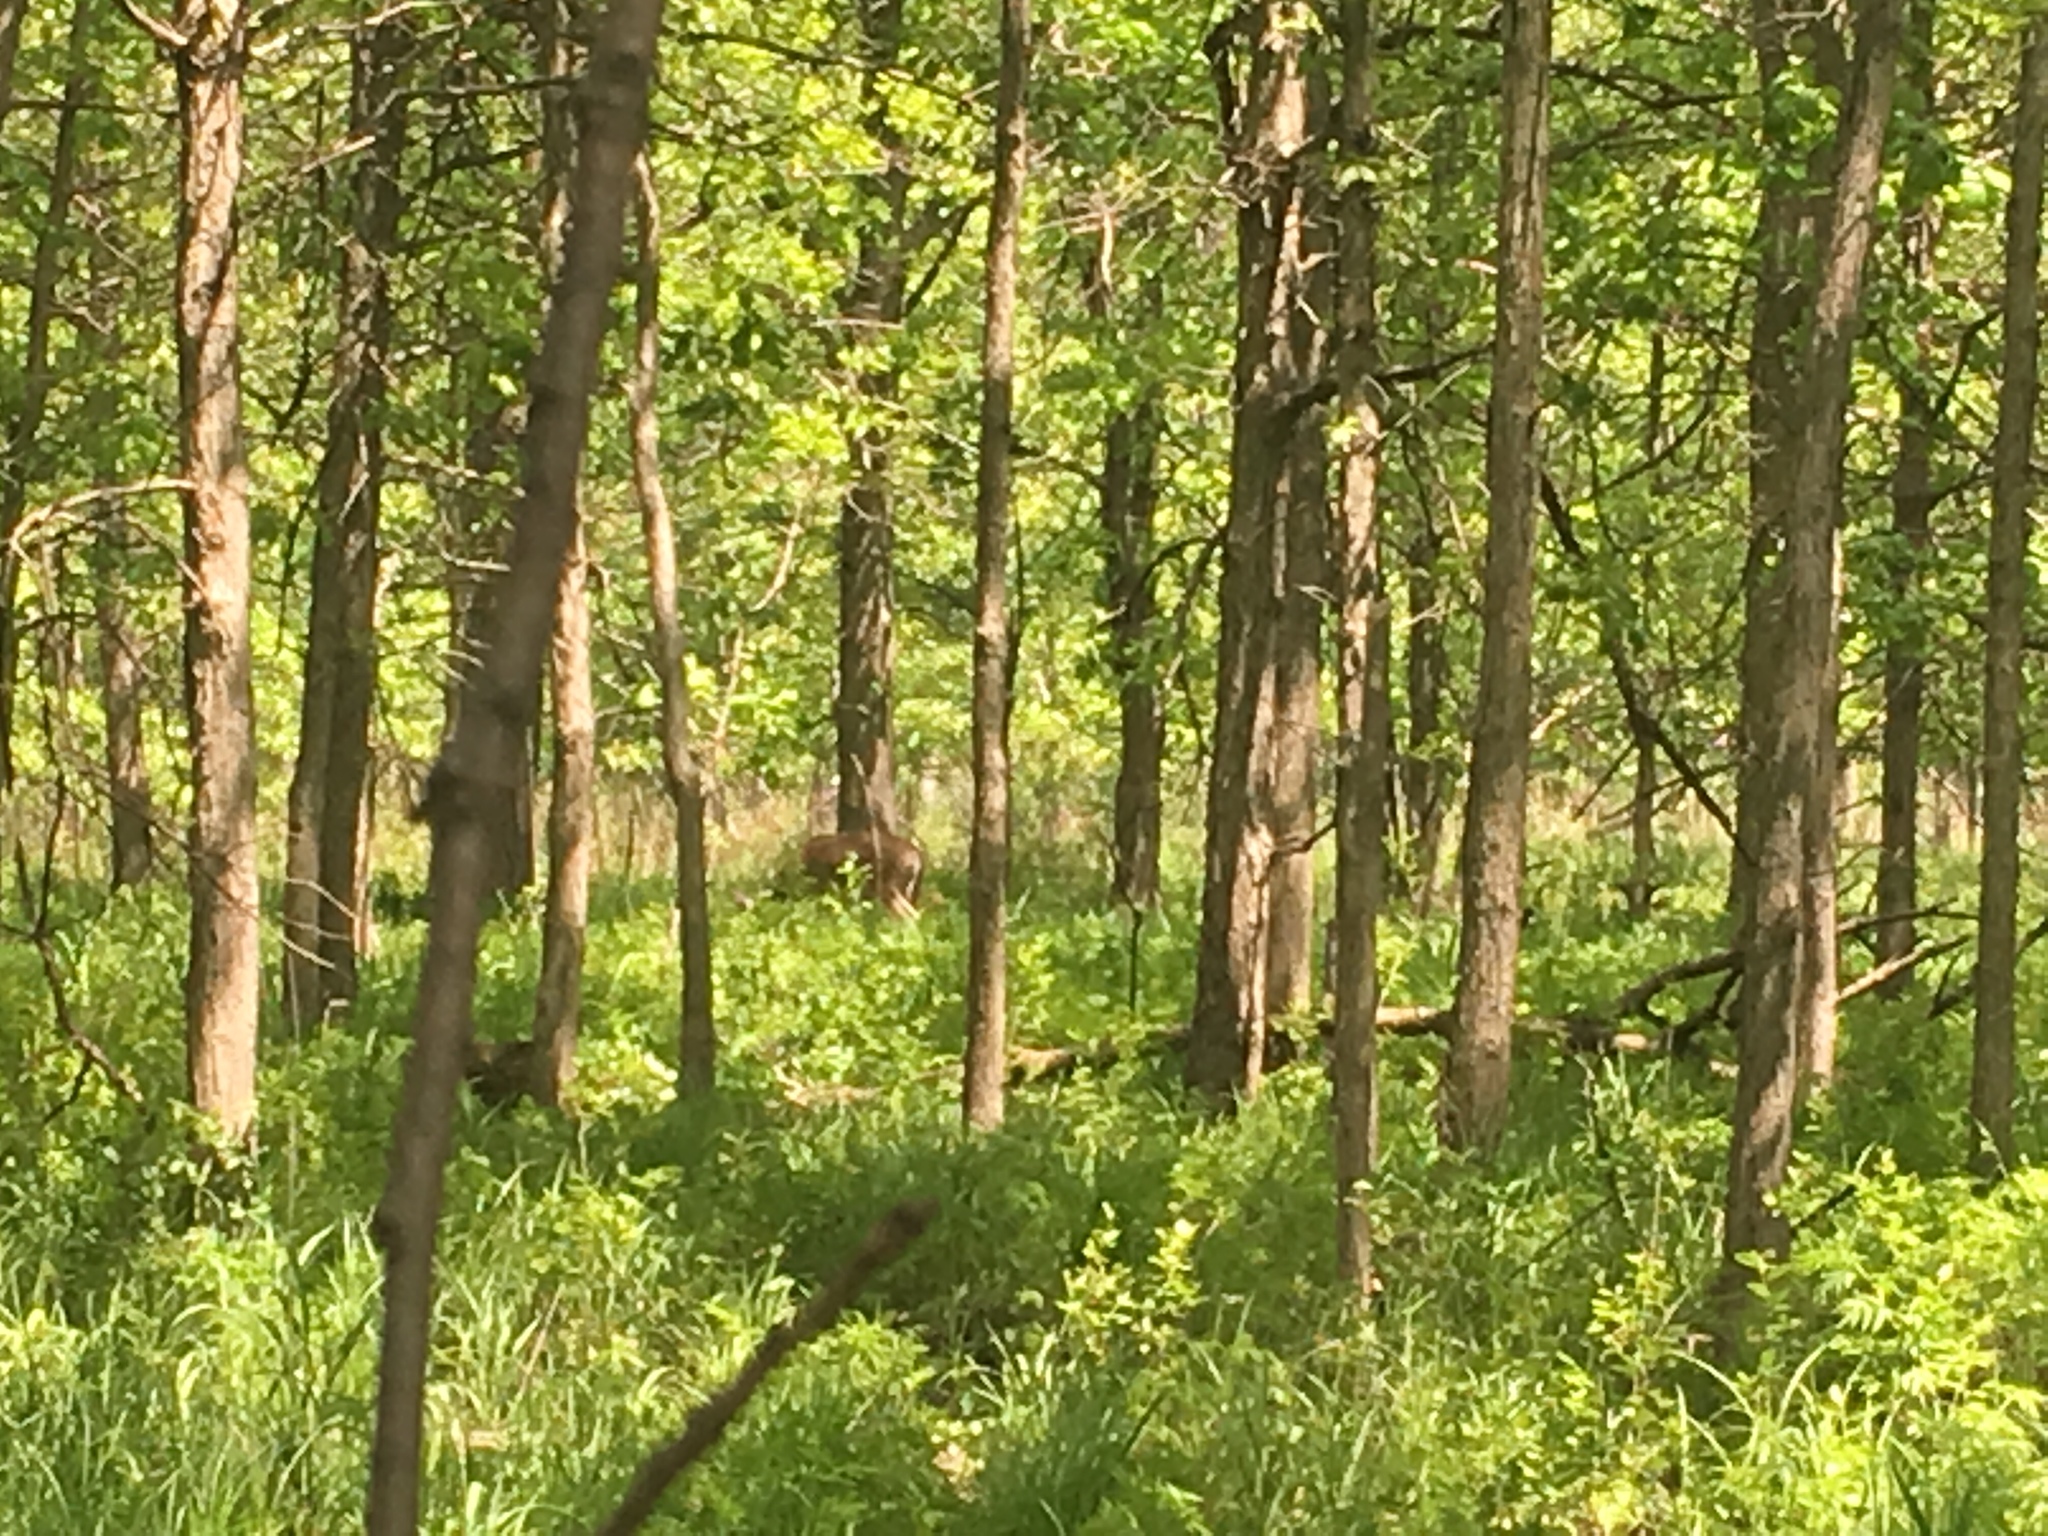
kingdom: Animalia
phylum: Chordata
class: Mammalia
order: Artiodactyla
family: Cervidae
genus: Odocoileus
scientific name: Odocoileus virginianus
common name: White-tailed deer
